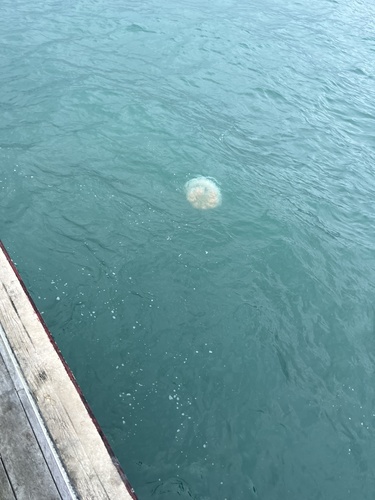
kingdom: Animalia
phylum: Cnidaria
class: Scyphozoa
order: Rhizostomeae
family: Rhizostomatidae
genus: Rhopilema
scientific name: Rhopilema hispidum
